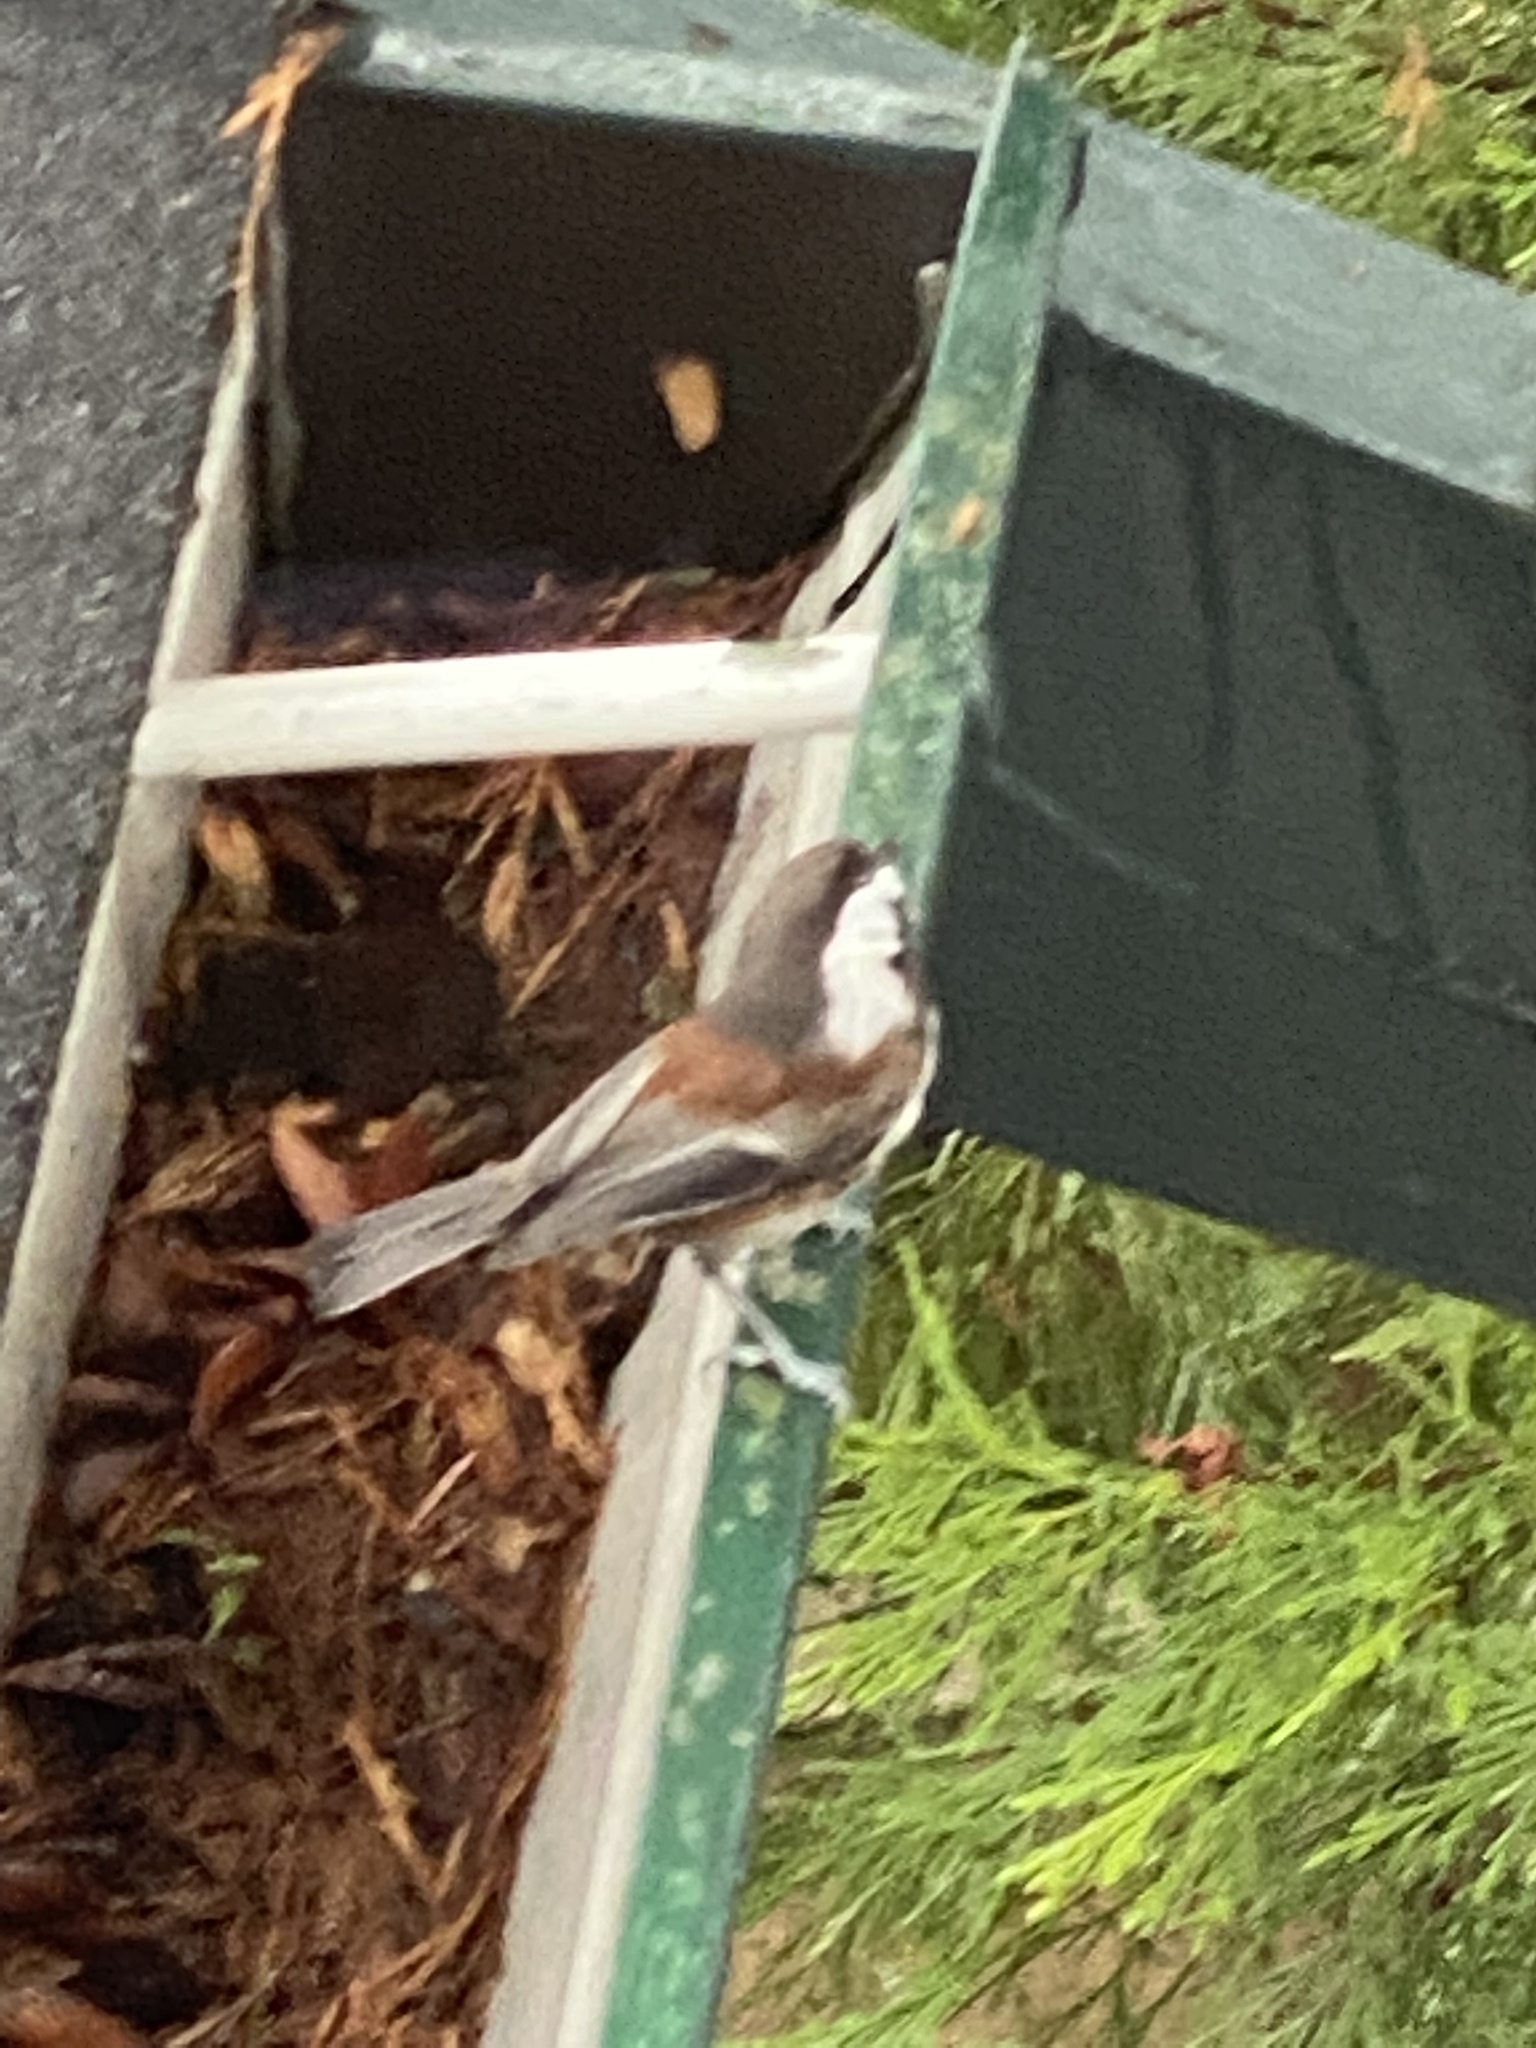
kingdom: Animalia
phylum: Chordata
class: Aves
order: Passeriformes
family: Paridae
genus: Poecile
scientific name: Poecile rufescens
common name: Chestnut-backed chickadee
